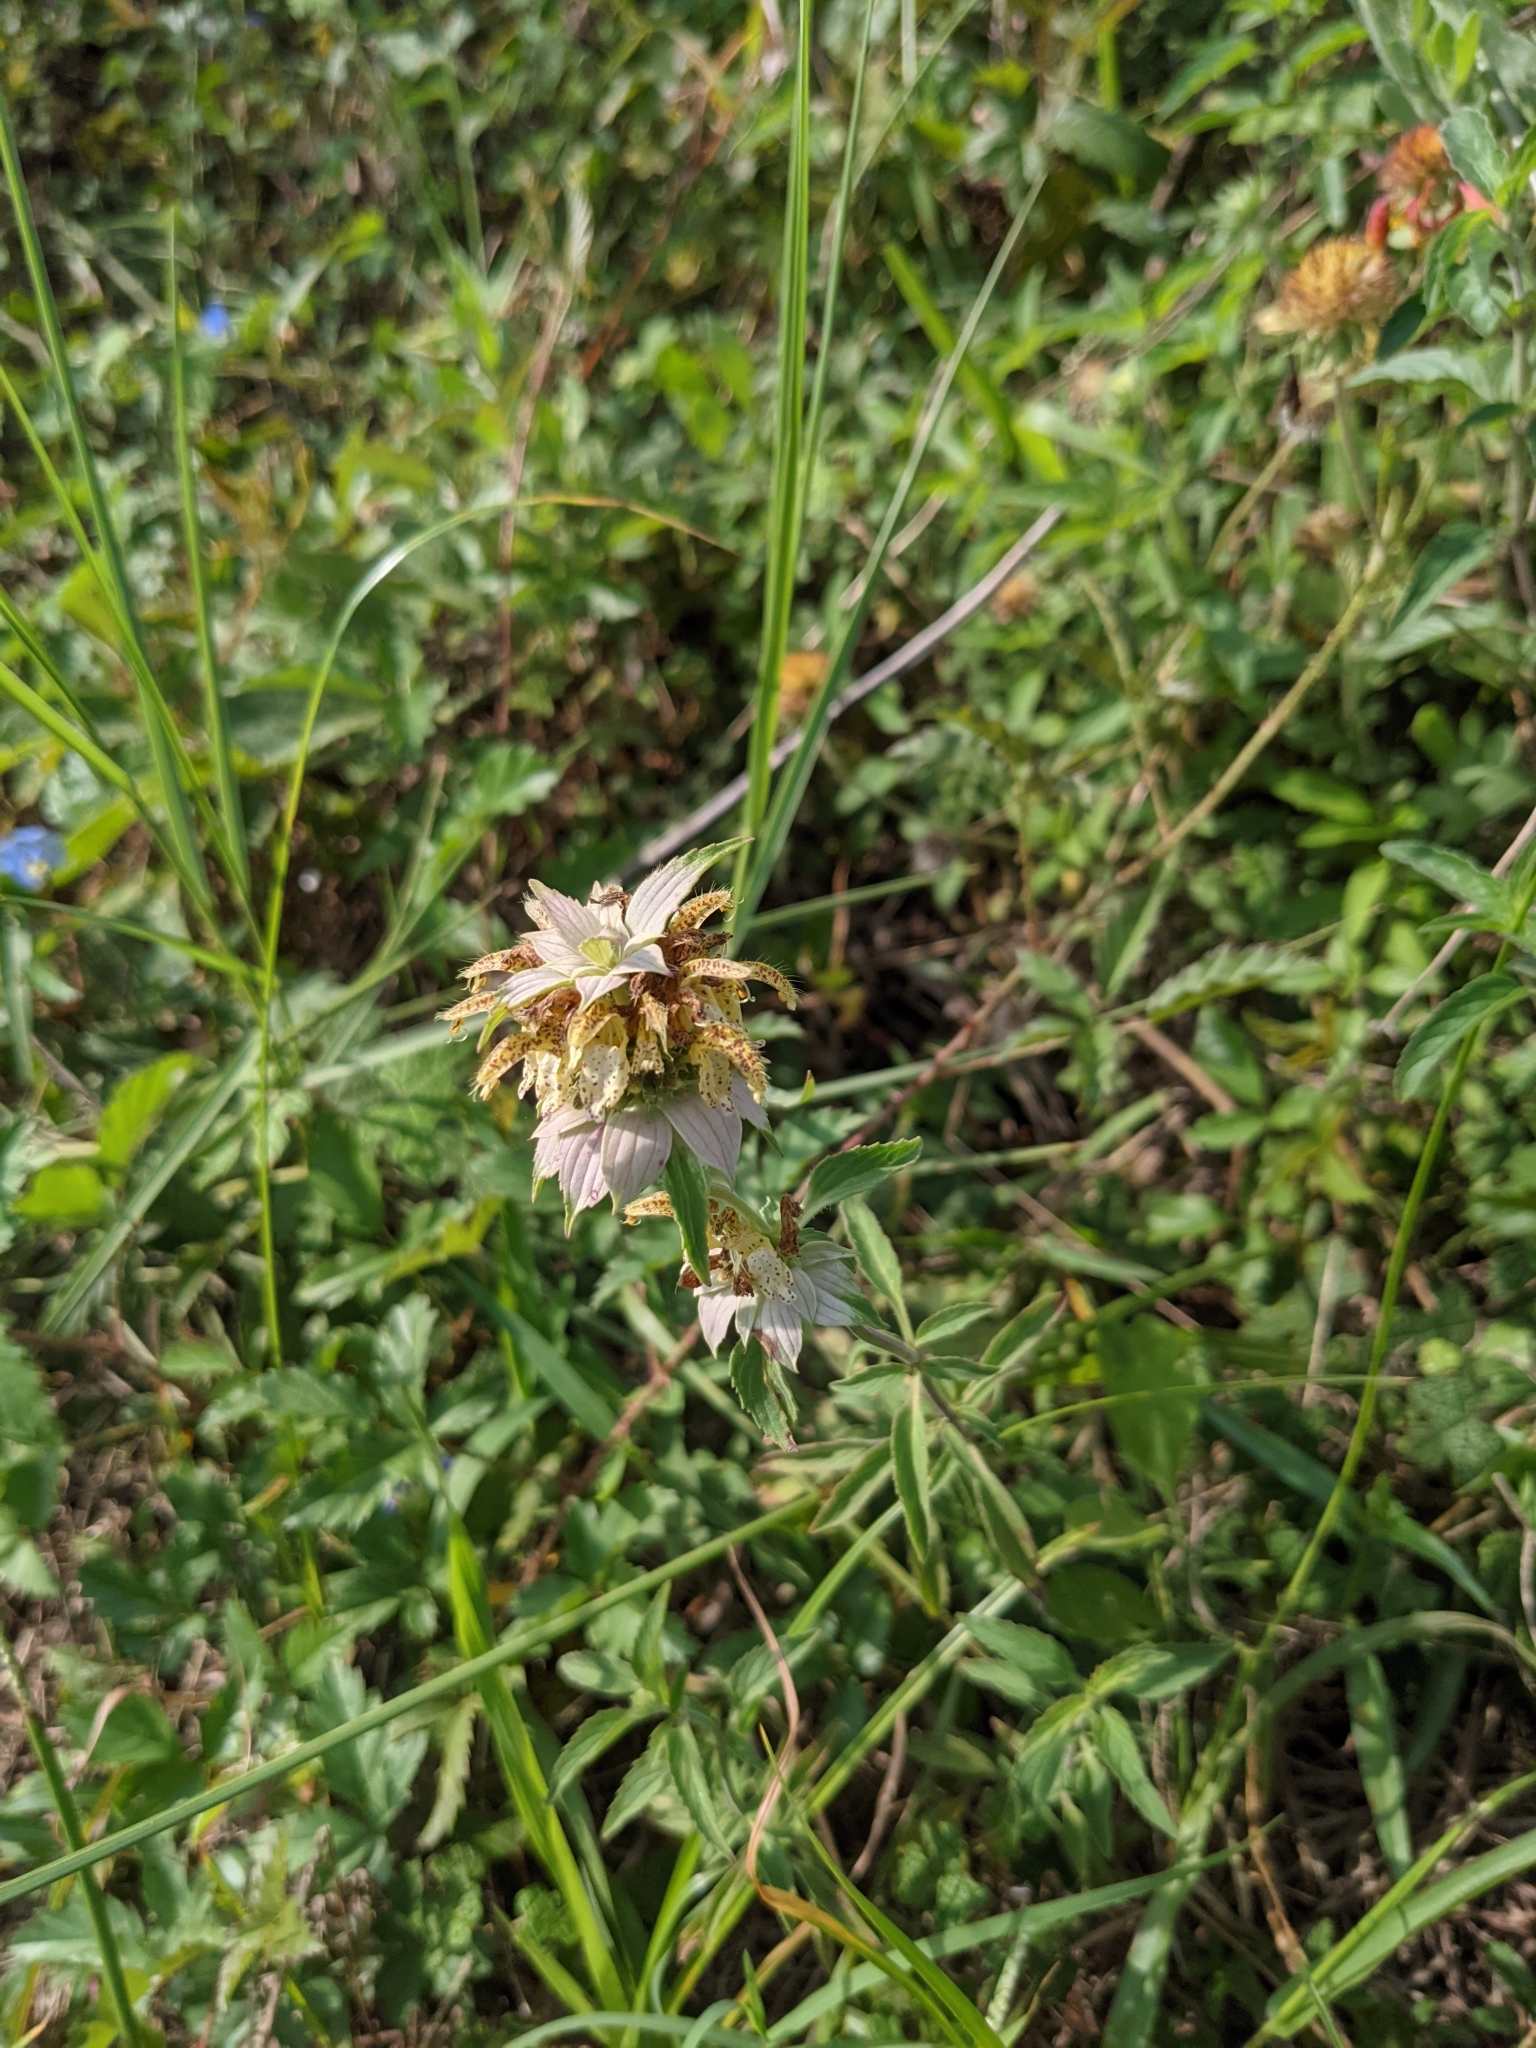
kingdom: Plantae
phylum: Tracheophyta
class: Magnoliopsida
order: Lamiales
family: Lamiaceae
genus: Monarda
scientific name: Monarda punctata
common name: Dotted monarda
